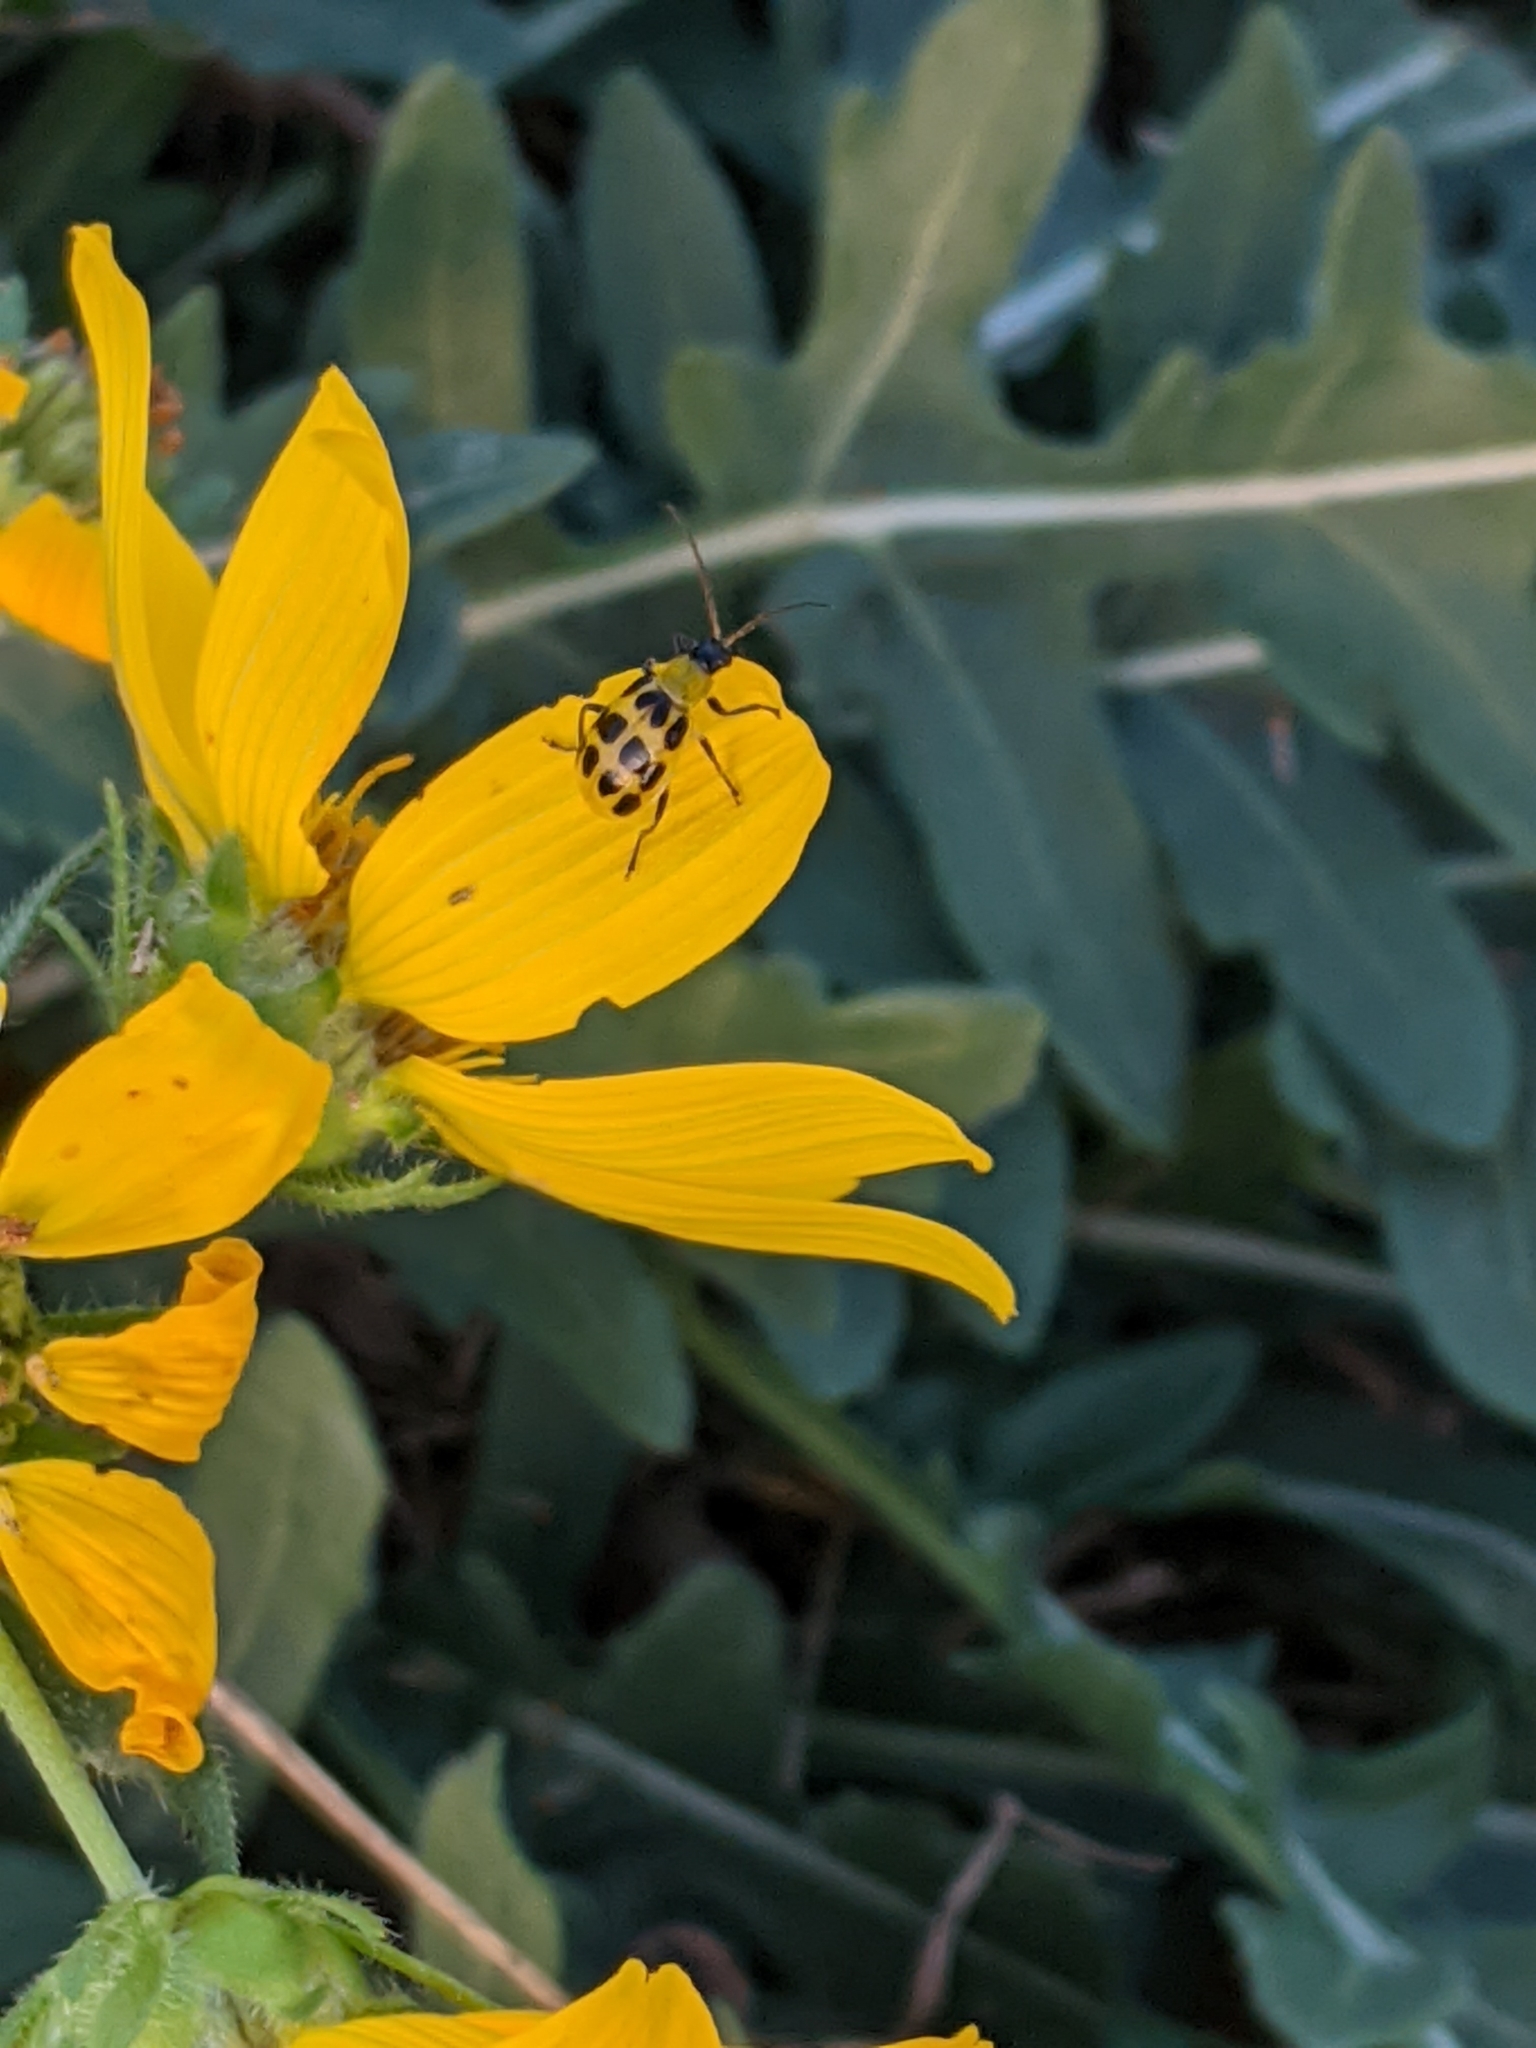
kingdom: Animalia
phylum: Arthropoda
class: Insecta
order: Coleoptera
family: Chrysomelidae
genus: Diabrotica
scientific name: Diabrotica undecimpunctata
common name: Spotted cucumber beetle
